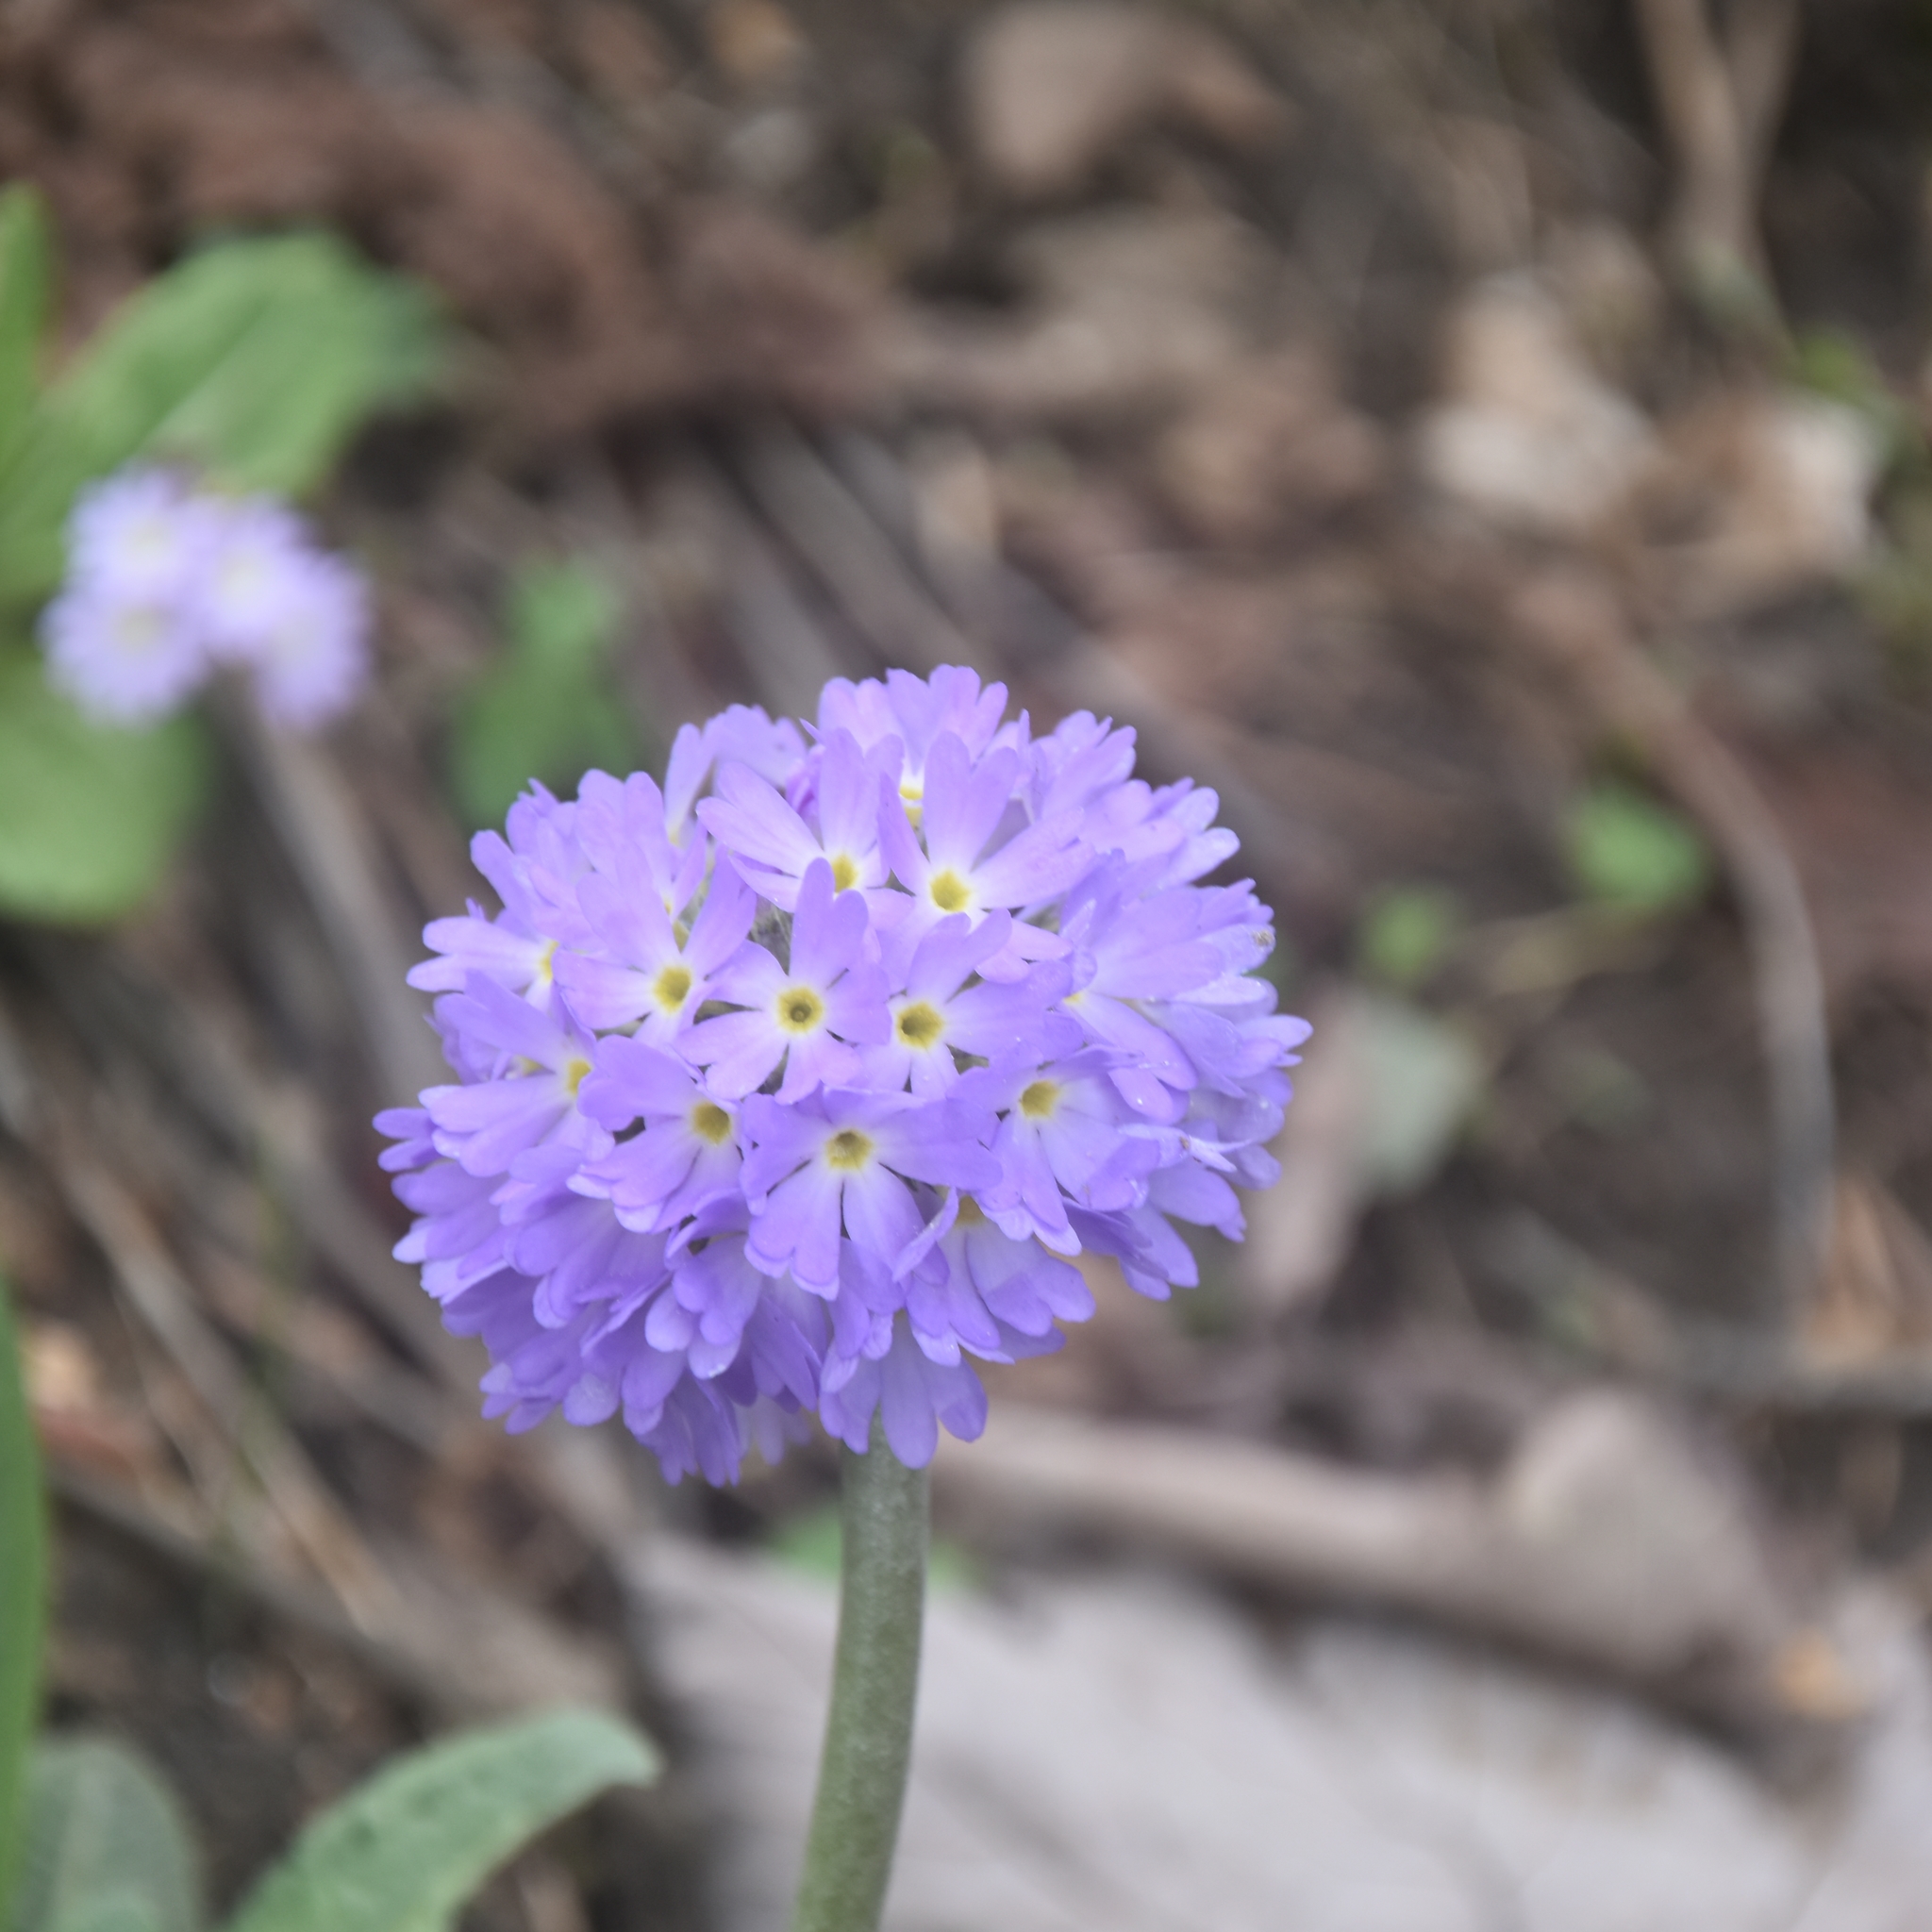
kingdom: Plantae
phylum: Tracheophyta
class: Magnoliopsida
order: Ericales
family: Primulaceae
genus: Primula
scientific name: Primula denticulata
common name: Drumstick primula
